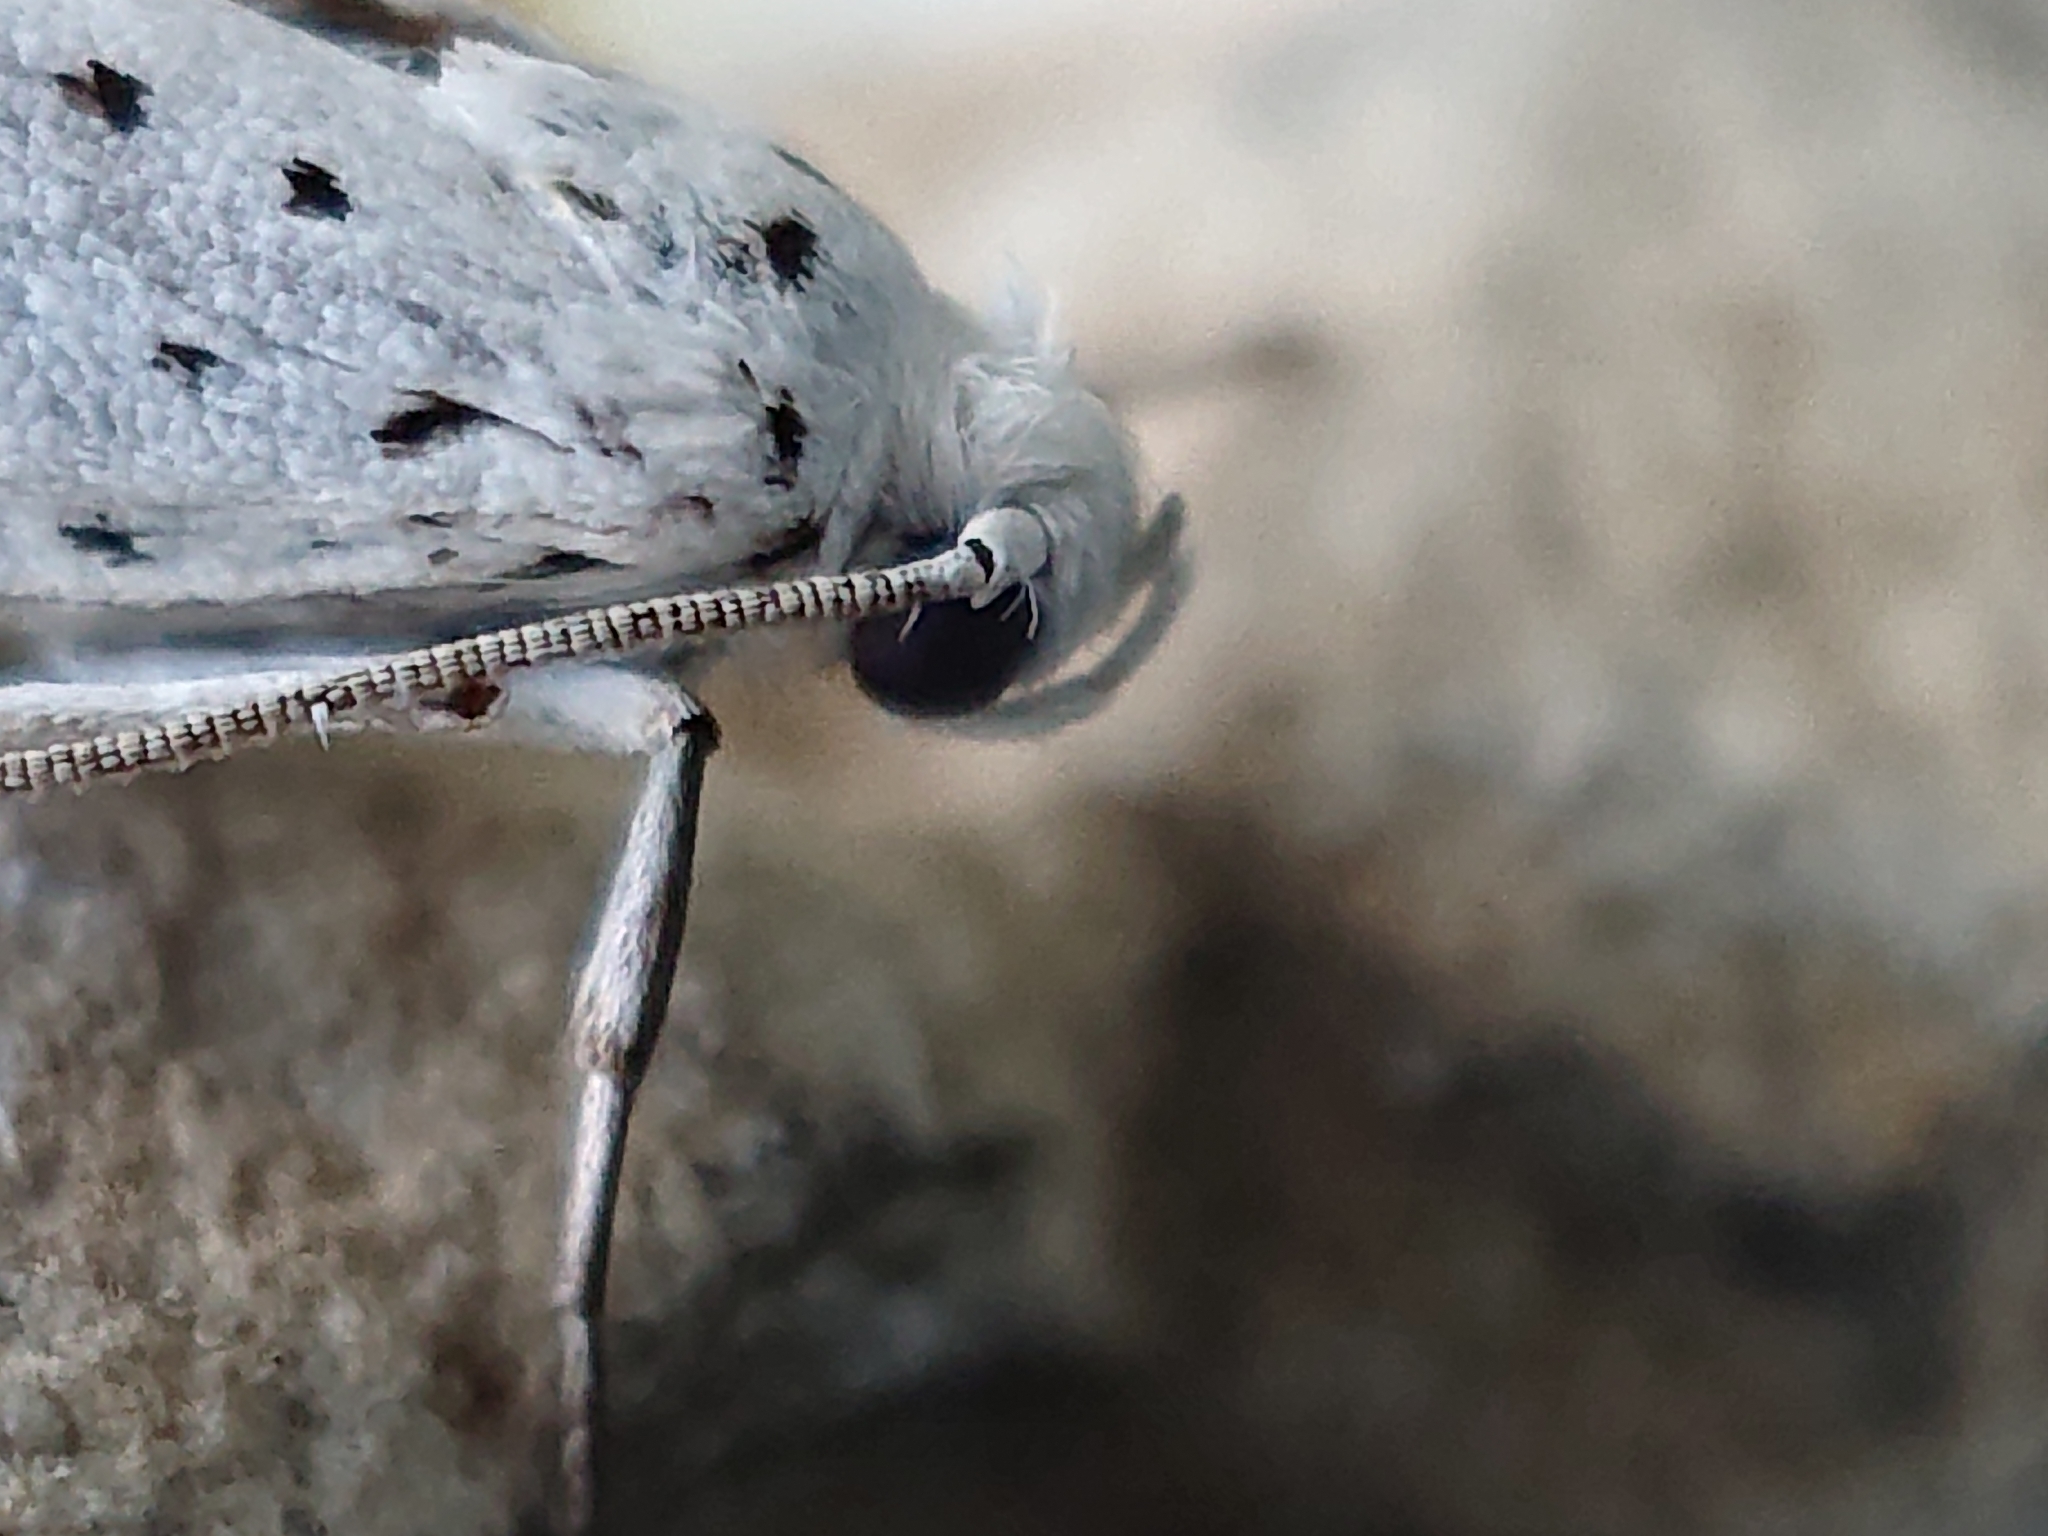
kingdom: Animalia
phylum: Arthropoda
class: Insecta
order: Lepidoptera
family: Yponomeutidae
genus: Yponomeuta
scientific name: Yponomeuta evonymella
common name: Bird-cherry ermine
